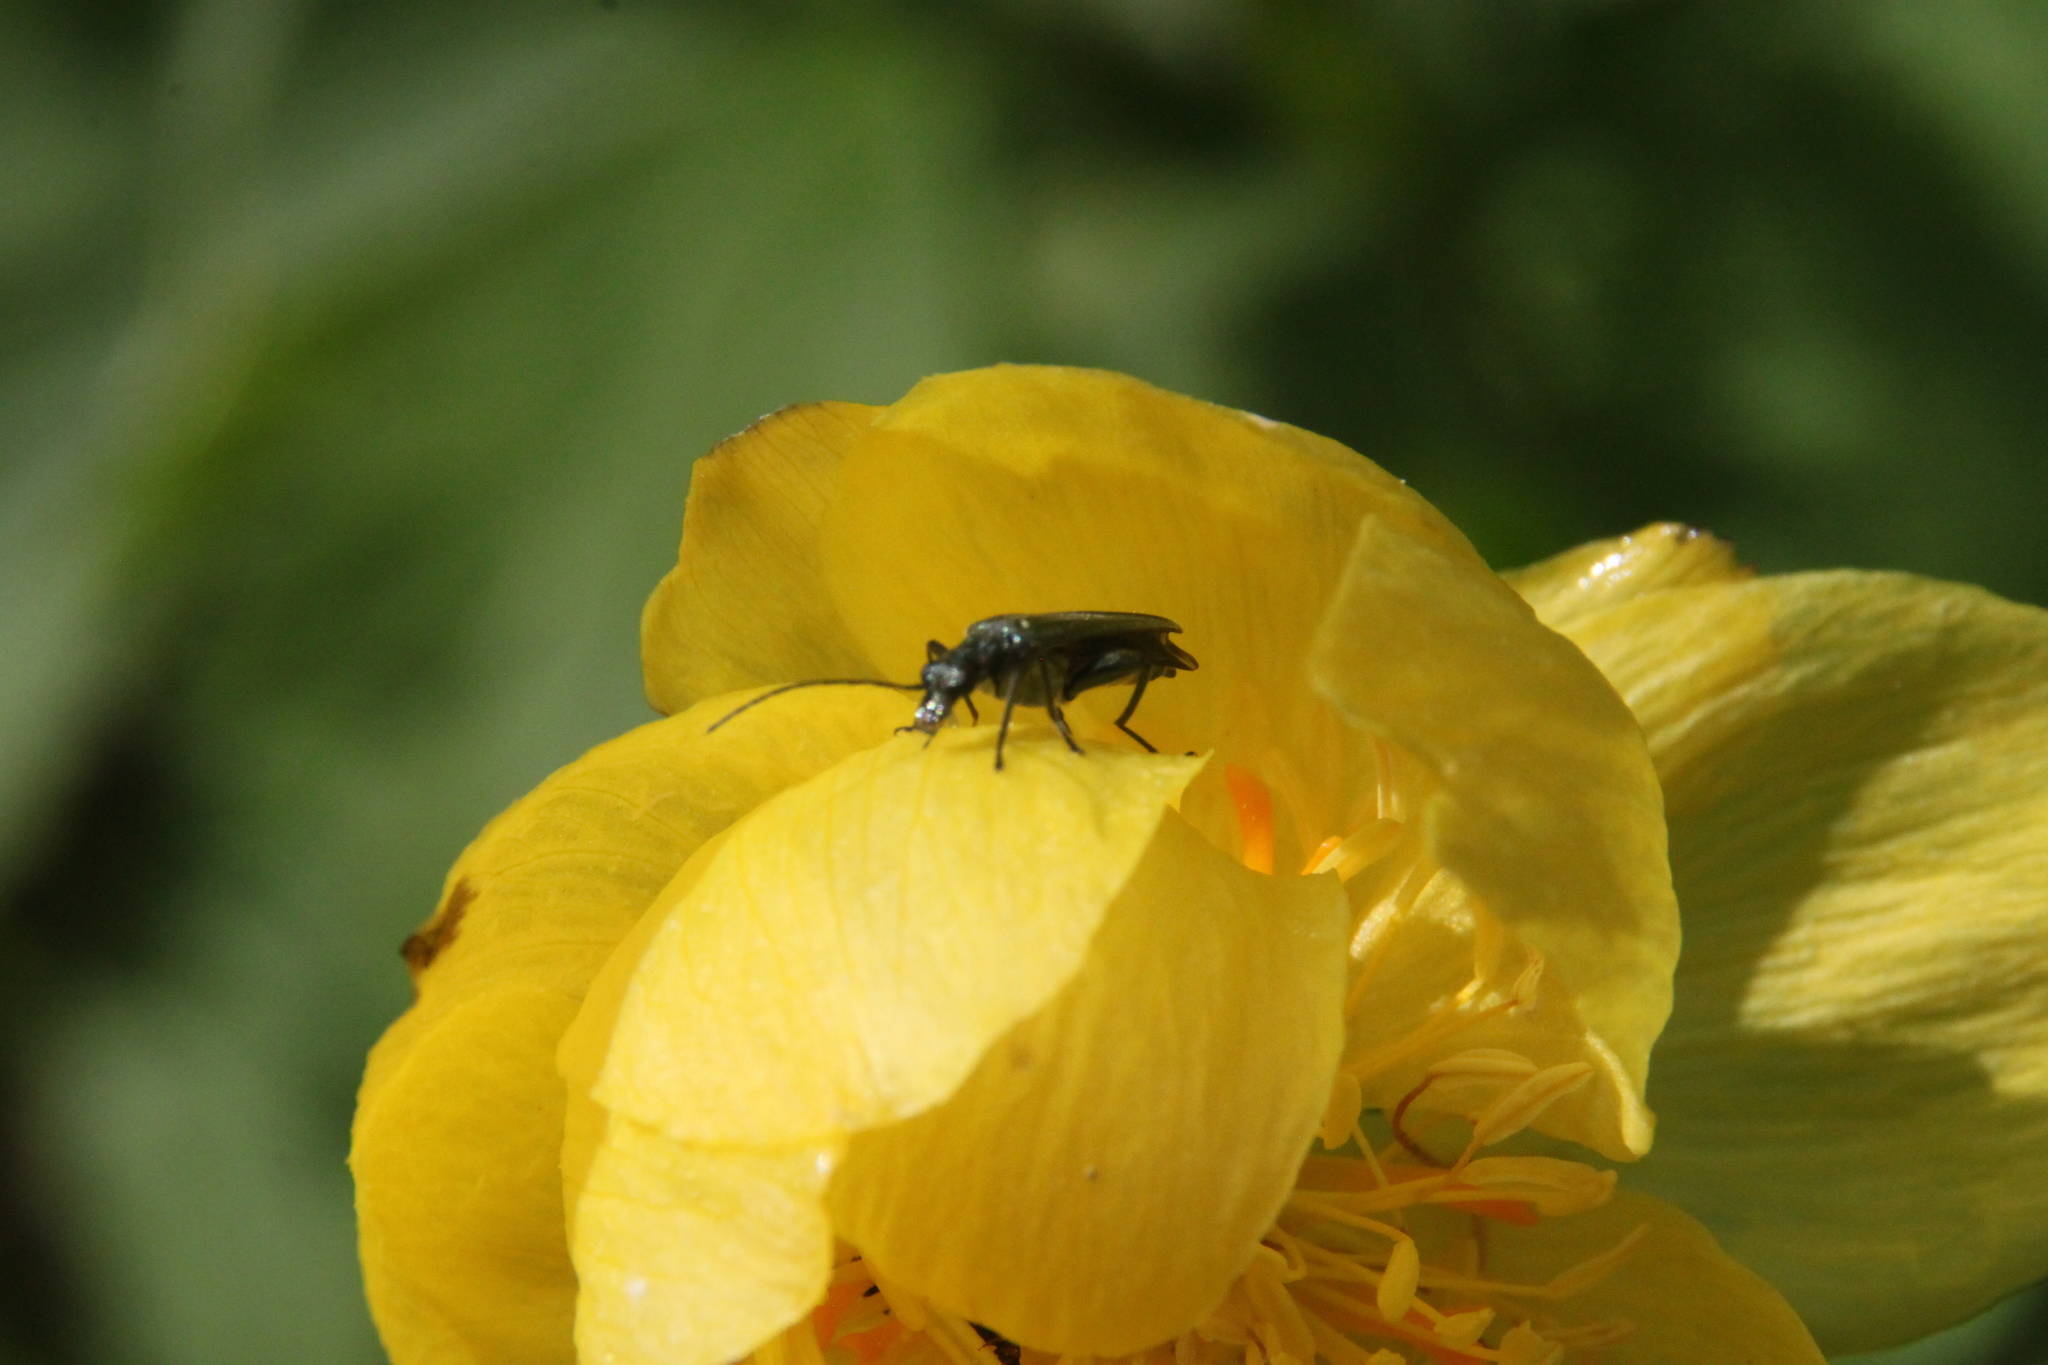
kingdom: Animalia
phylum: Arthropoda
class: Insecta
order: Coleoptera
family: Oedemeridae
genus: Oedemera
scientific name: Oedemera virescens
